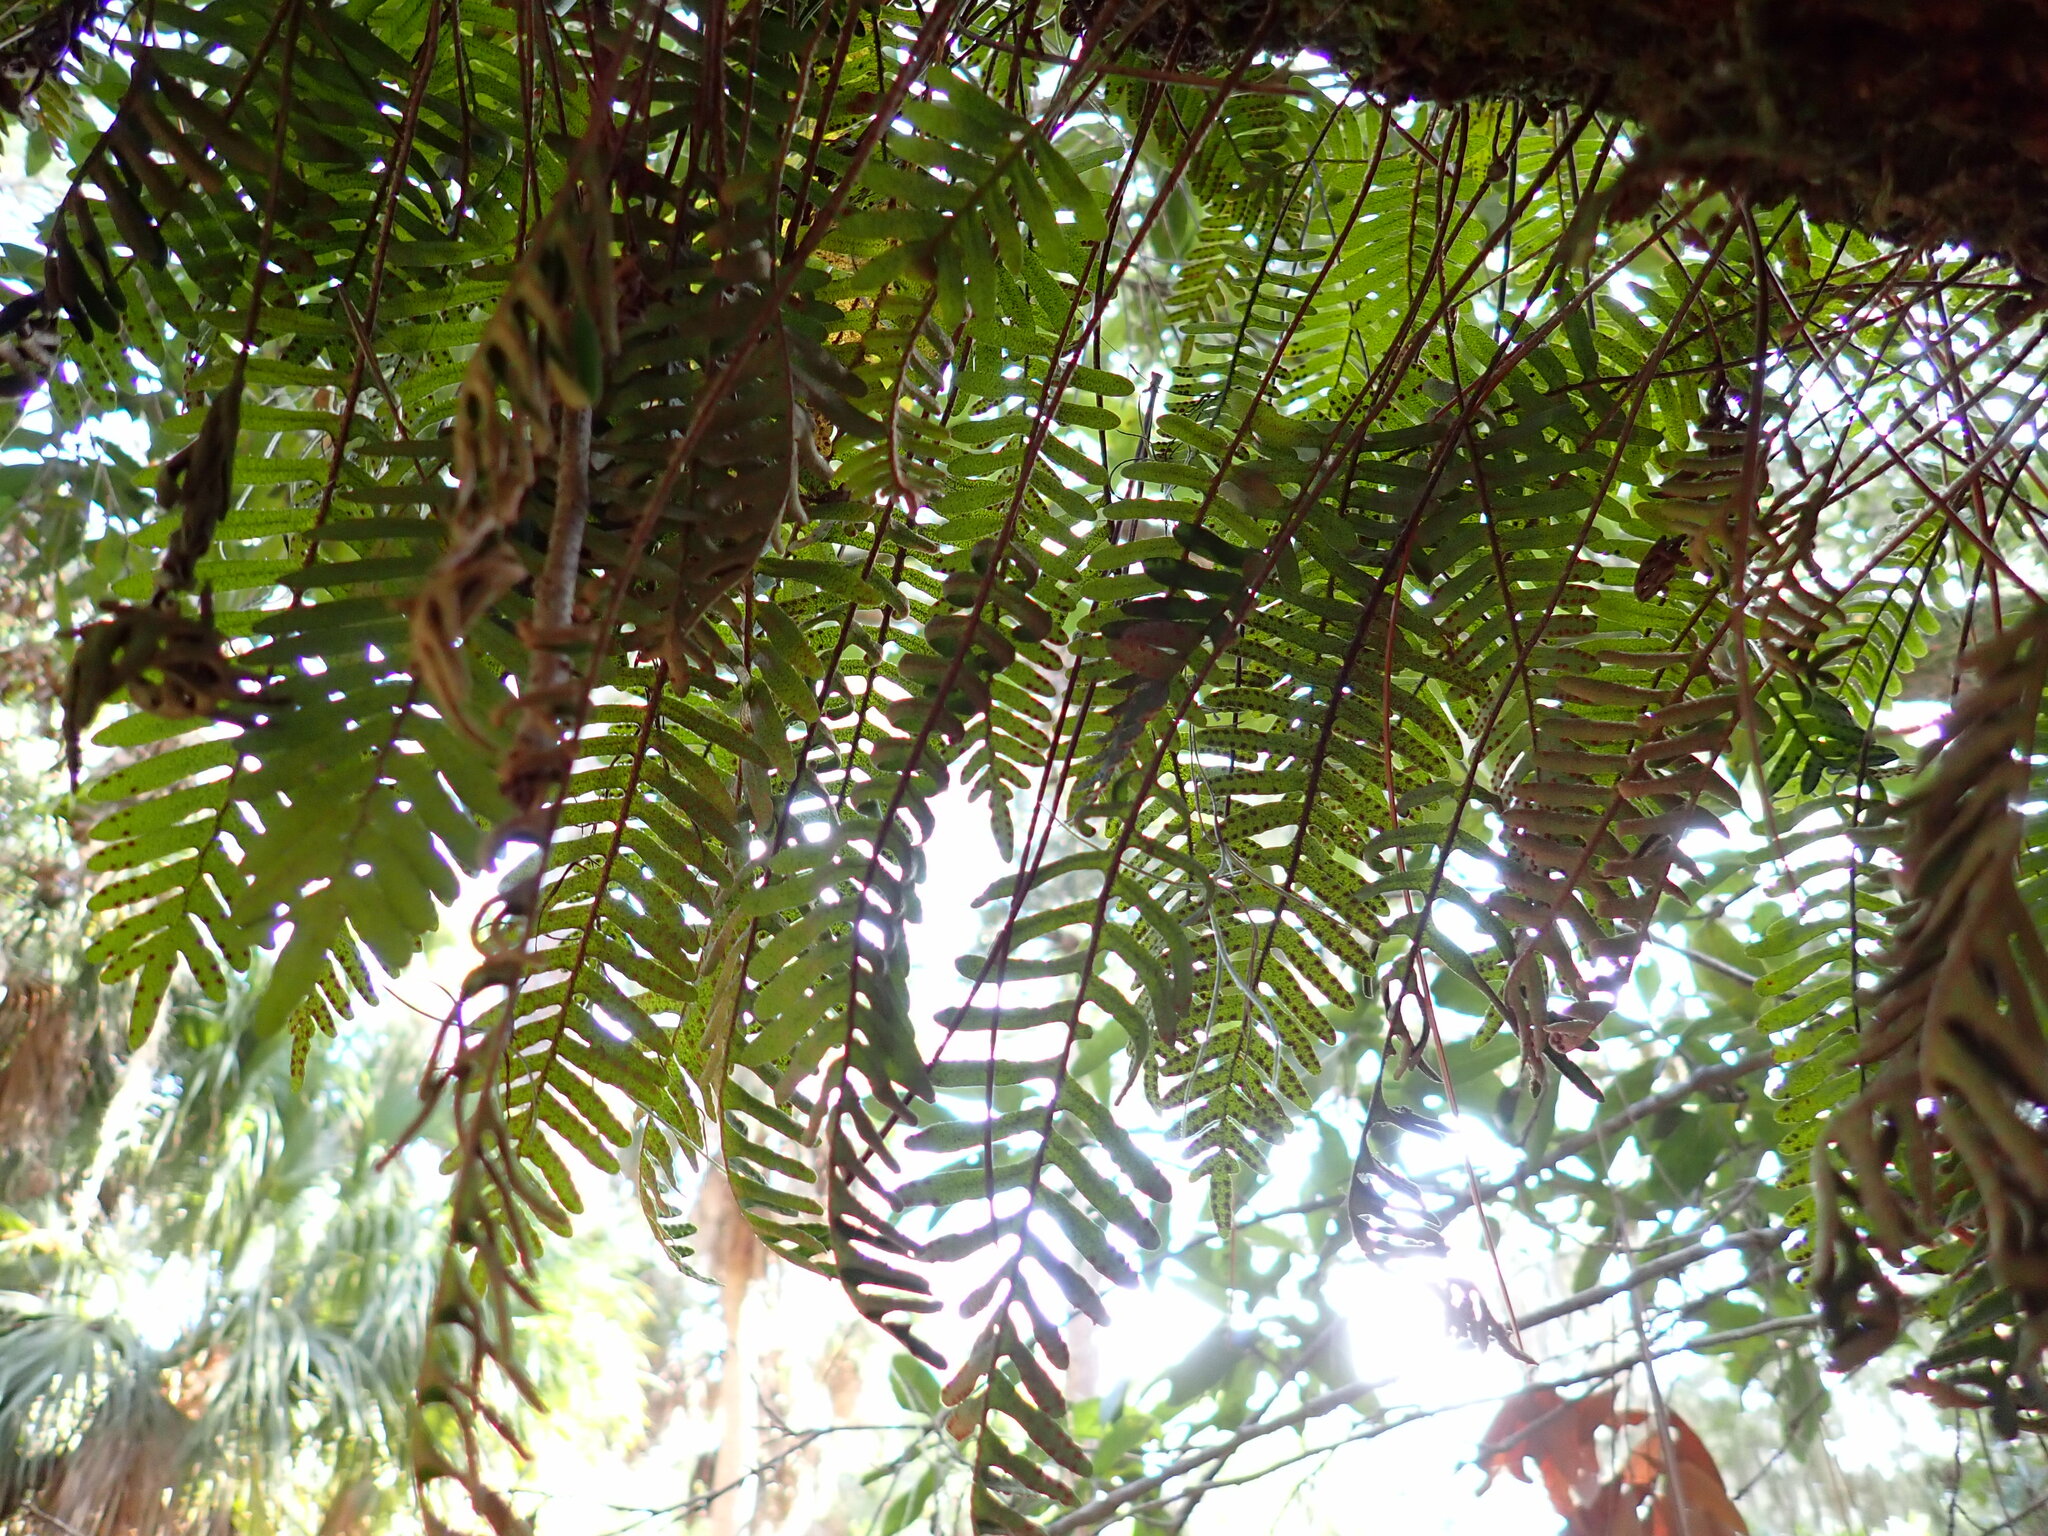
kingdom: Plantae
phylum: Tracheophyta
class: Polypodiopsida
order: Polypodiales
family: Polypodiaceae
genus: Pleopeltis
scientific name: Pleopeltis michauxiana
